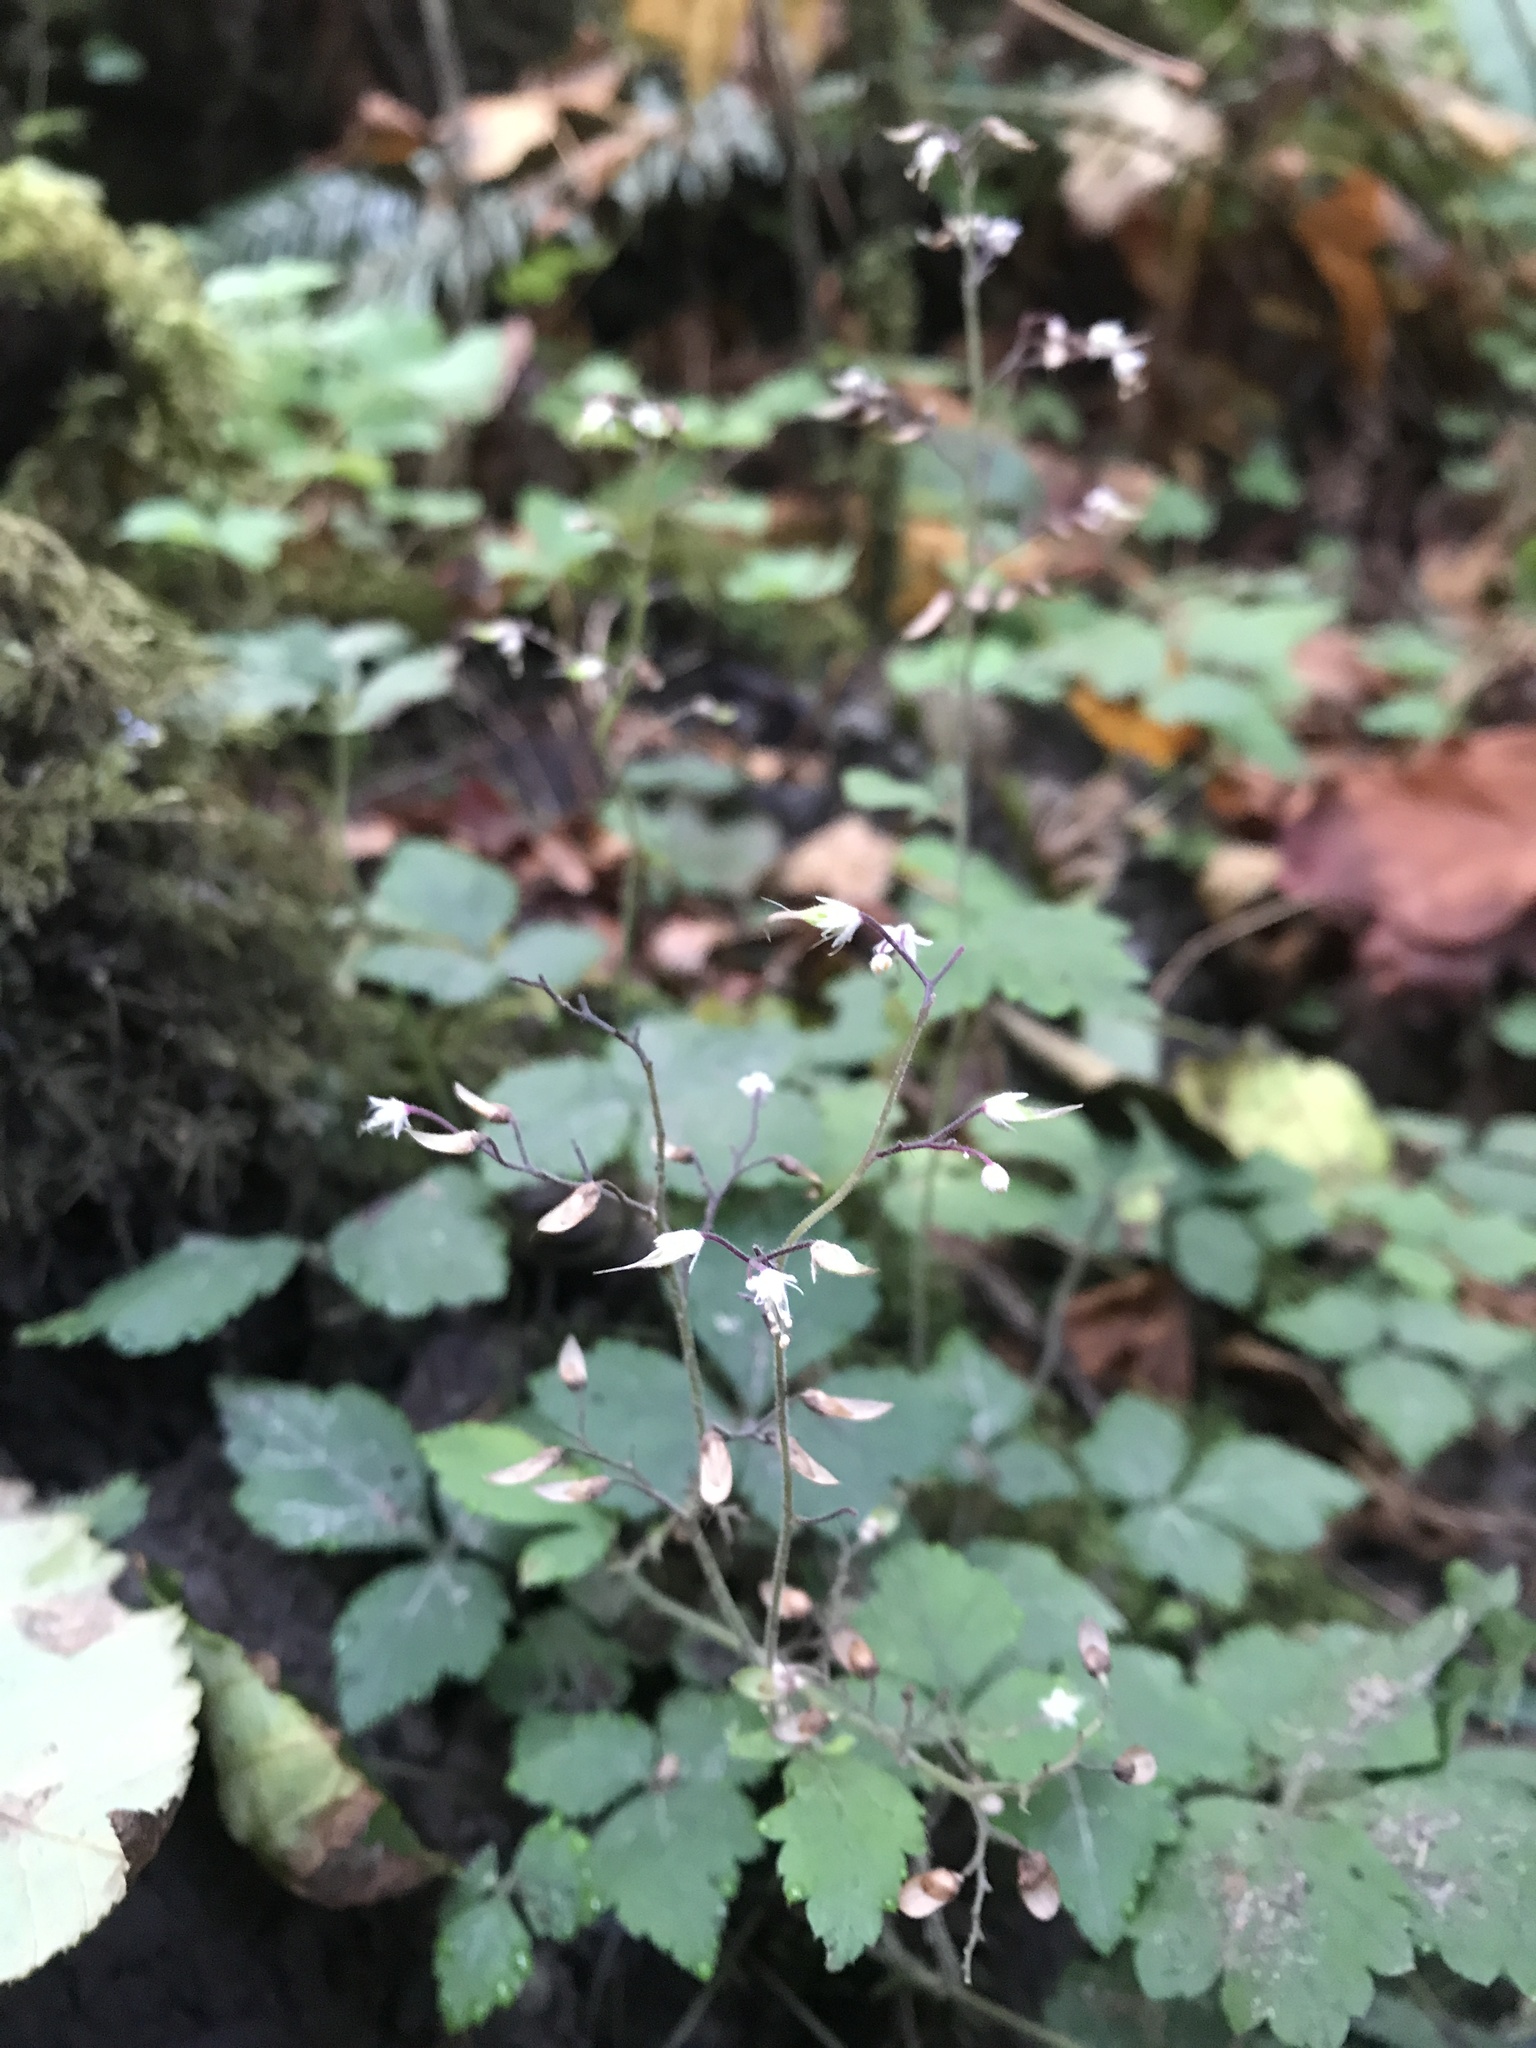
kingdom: Plantae
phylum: Tracheophyta
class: Magnoliopsida
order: Saxifragales
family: Saxifragaceae
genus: Tiarella
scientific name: Tiarella trifoliata
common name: Sugar-scoop
